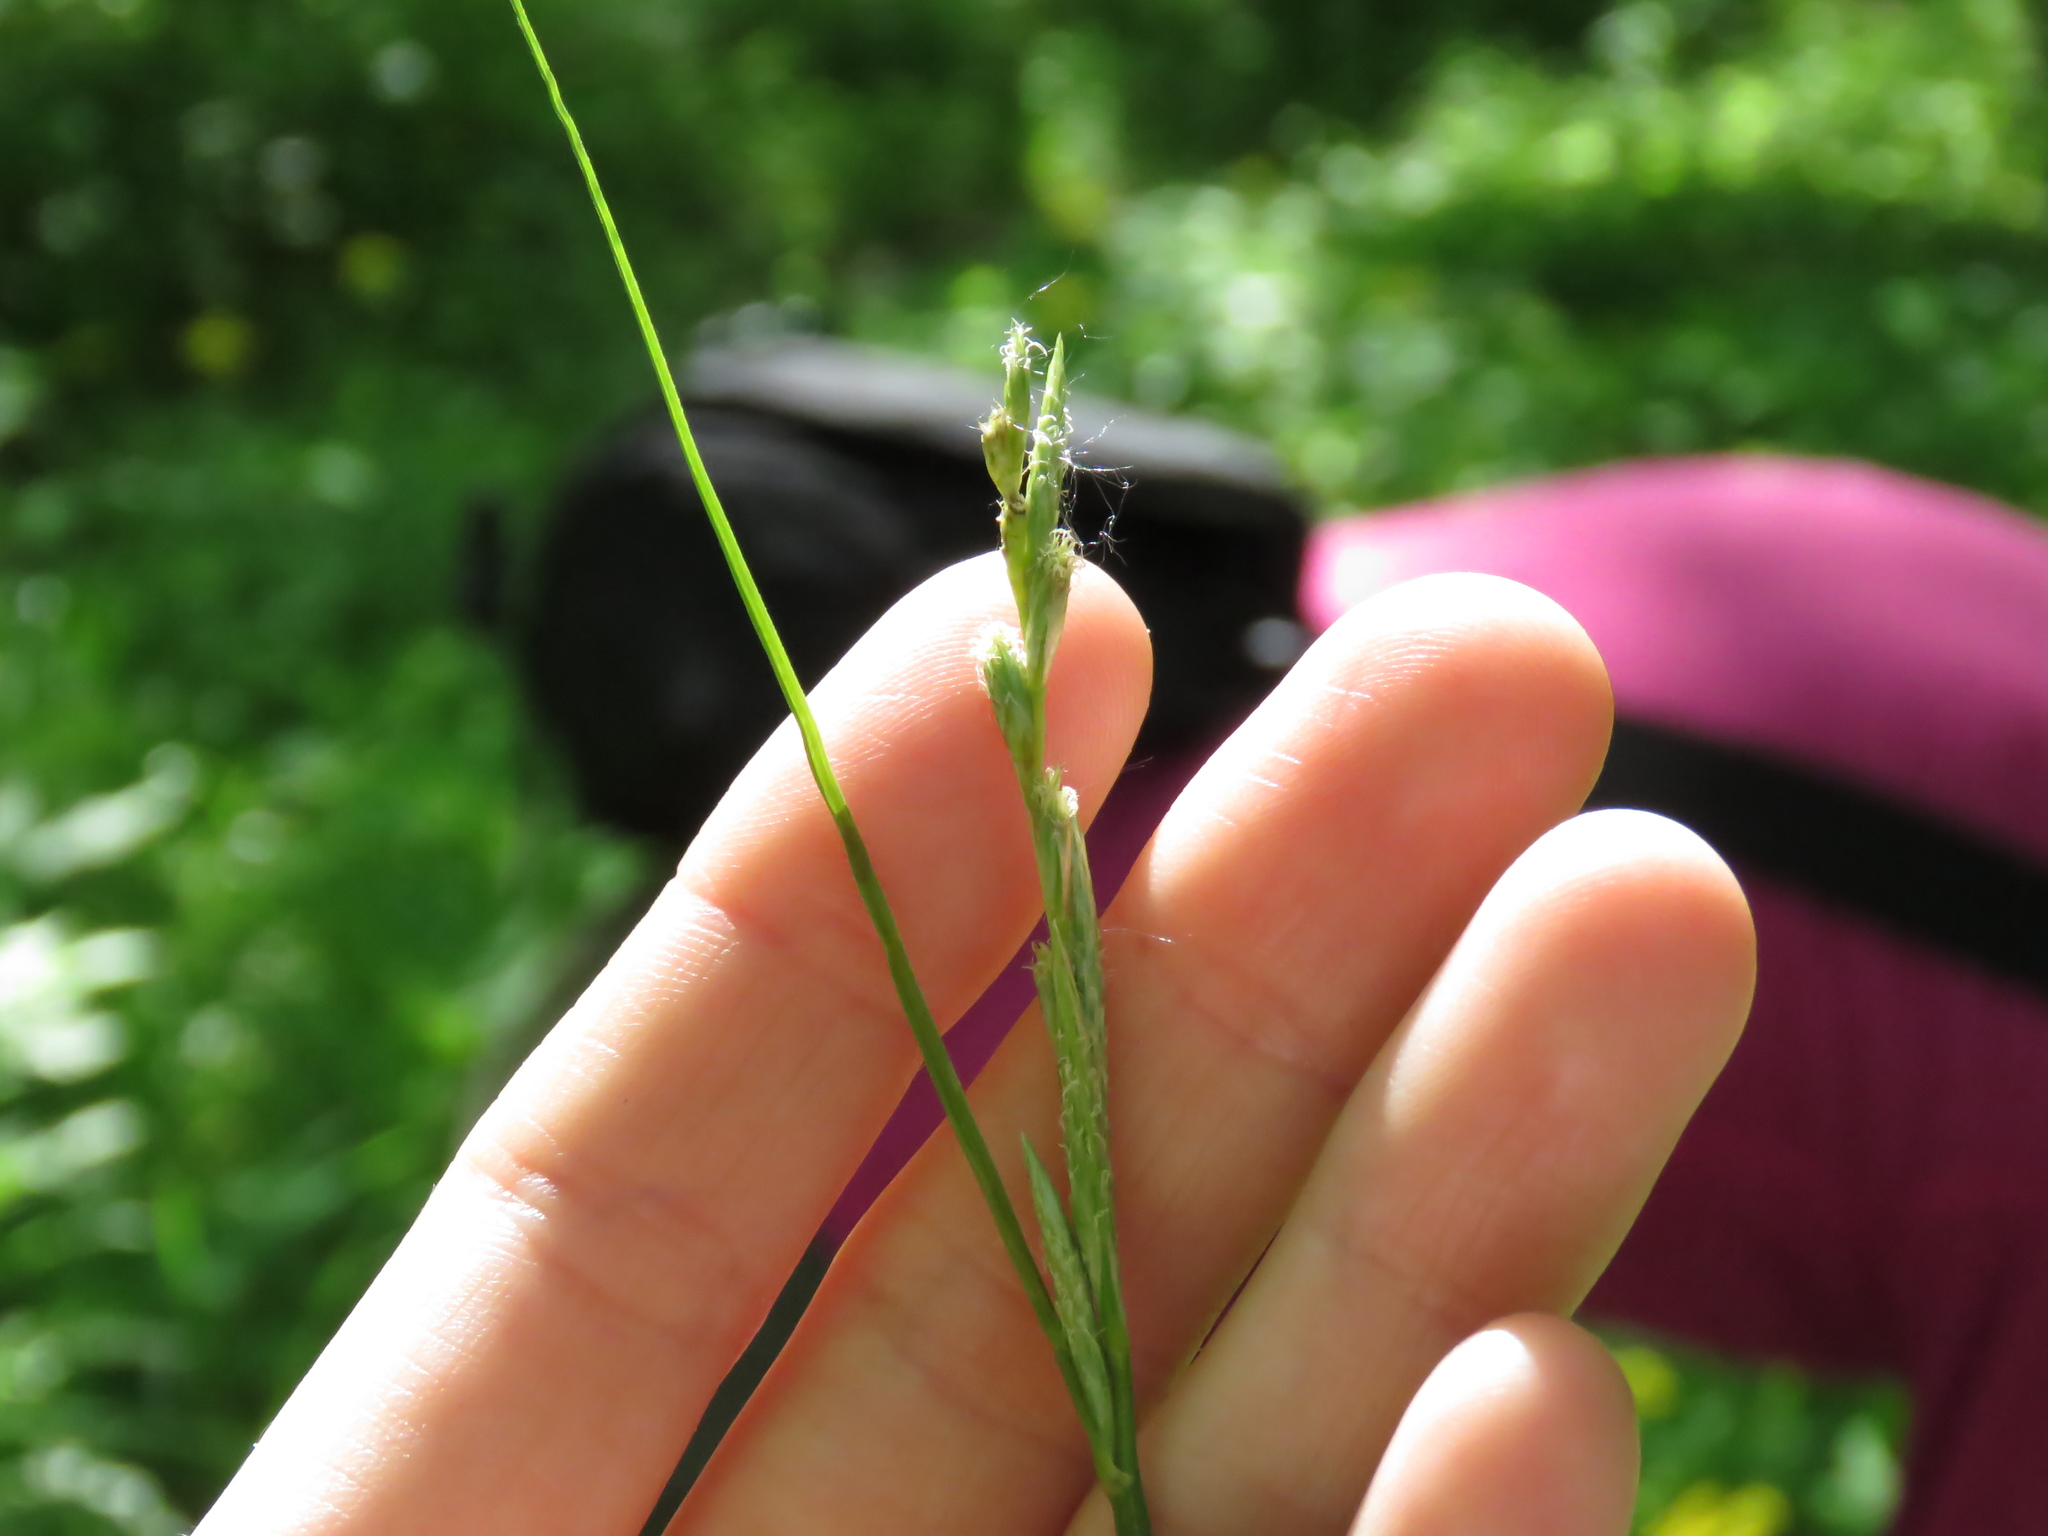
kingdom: Plantae
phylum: Tracheophyta
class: Liliopsida
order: Poales
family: Cyperaceae
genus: Carex
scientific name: Carex muskingumensis
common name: Muskingum sedge
